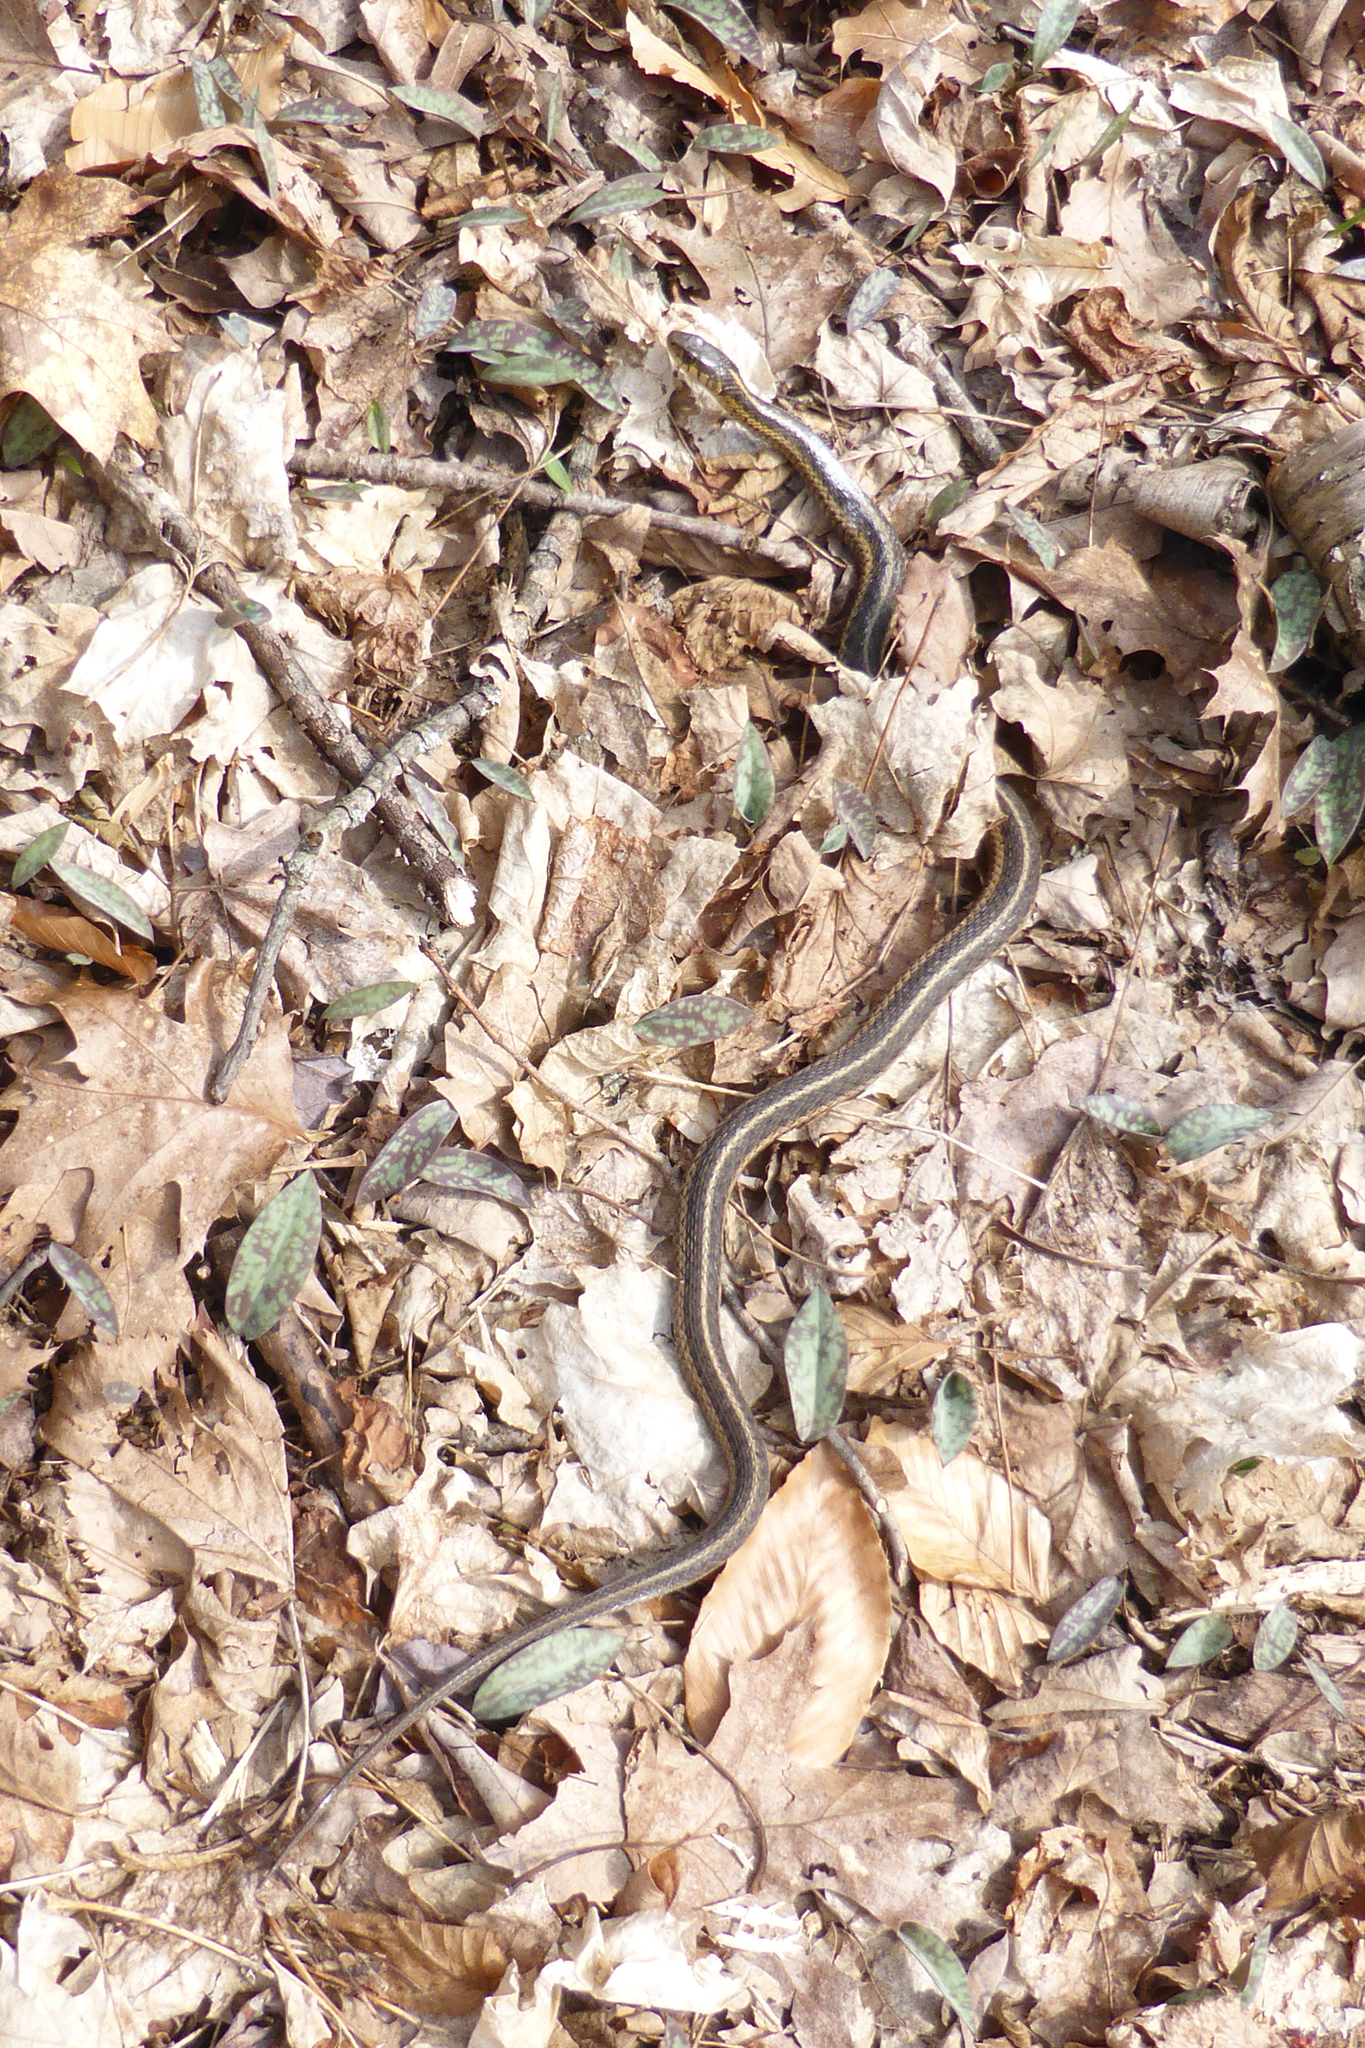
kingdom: Animalia
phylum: Chordata
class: Squamata
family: Colubridae
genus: Thamnophis
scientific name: Thamnophis sirtalis
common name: Common garter snake
